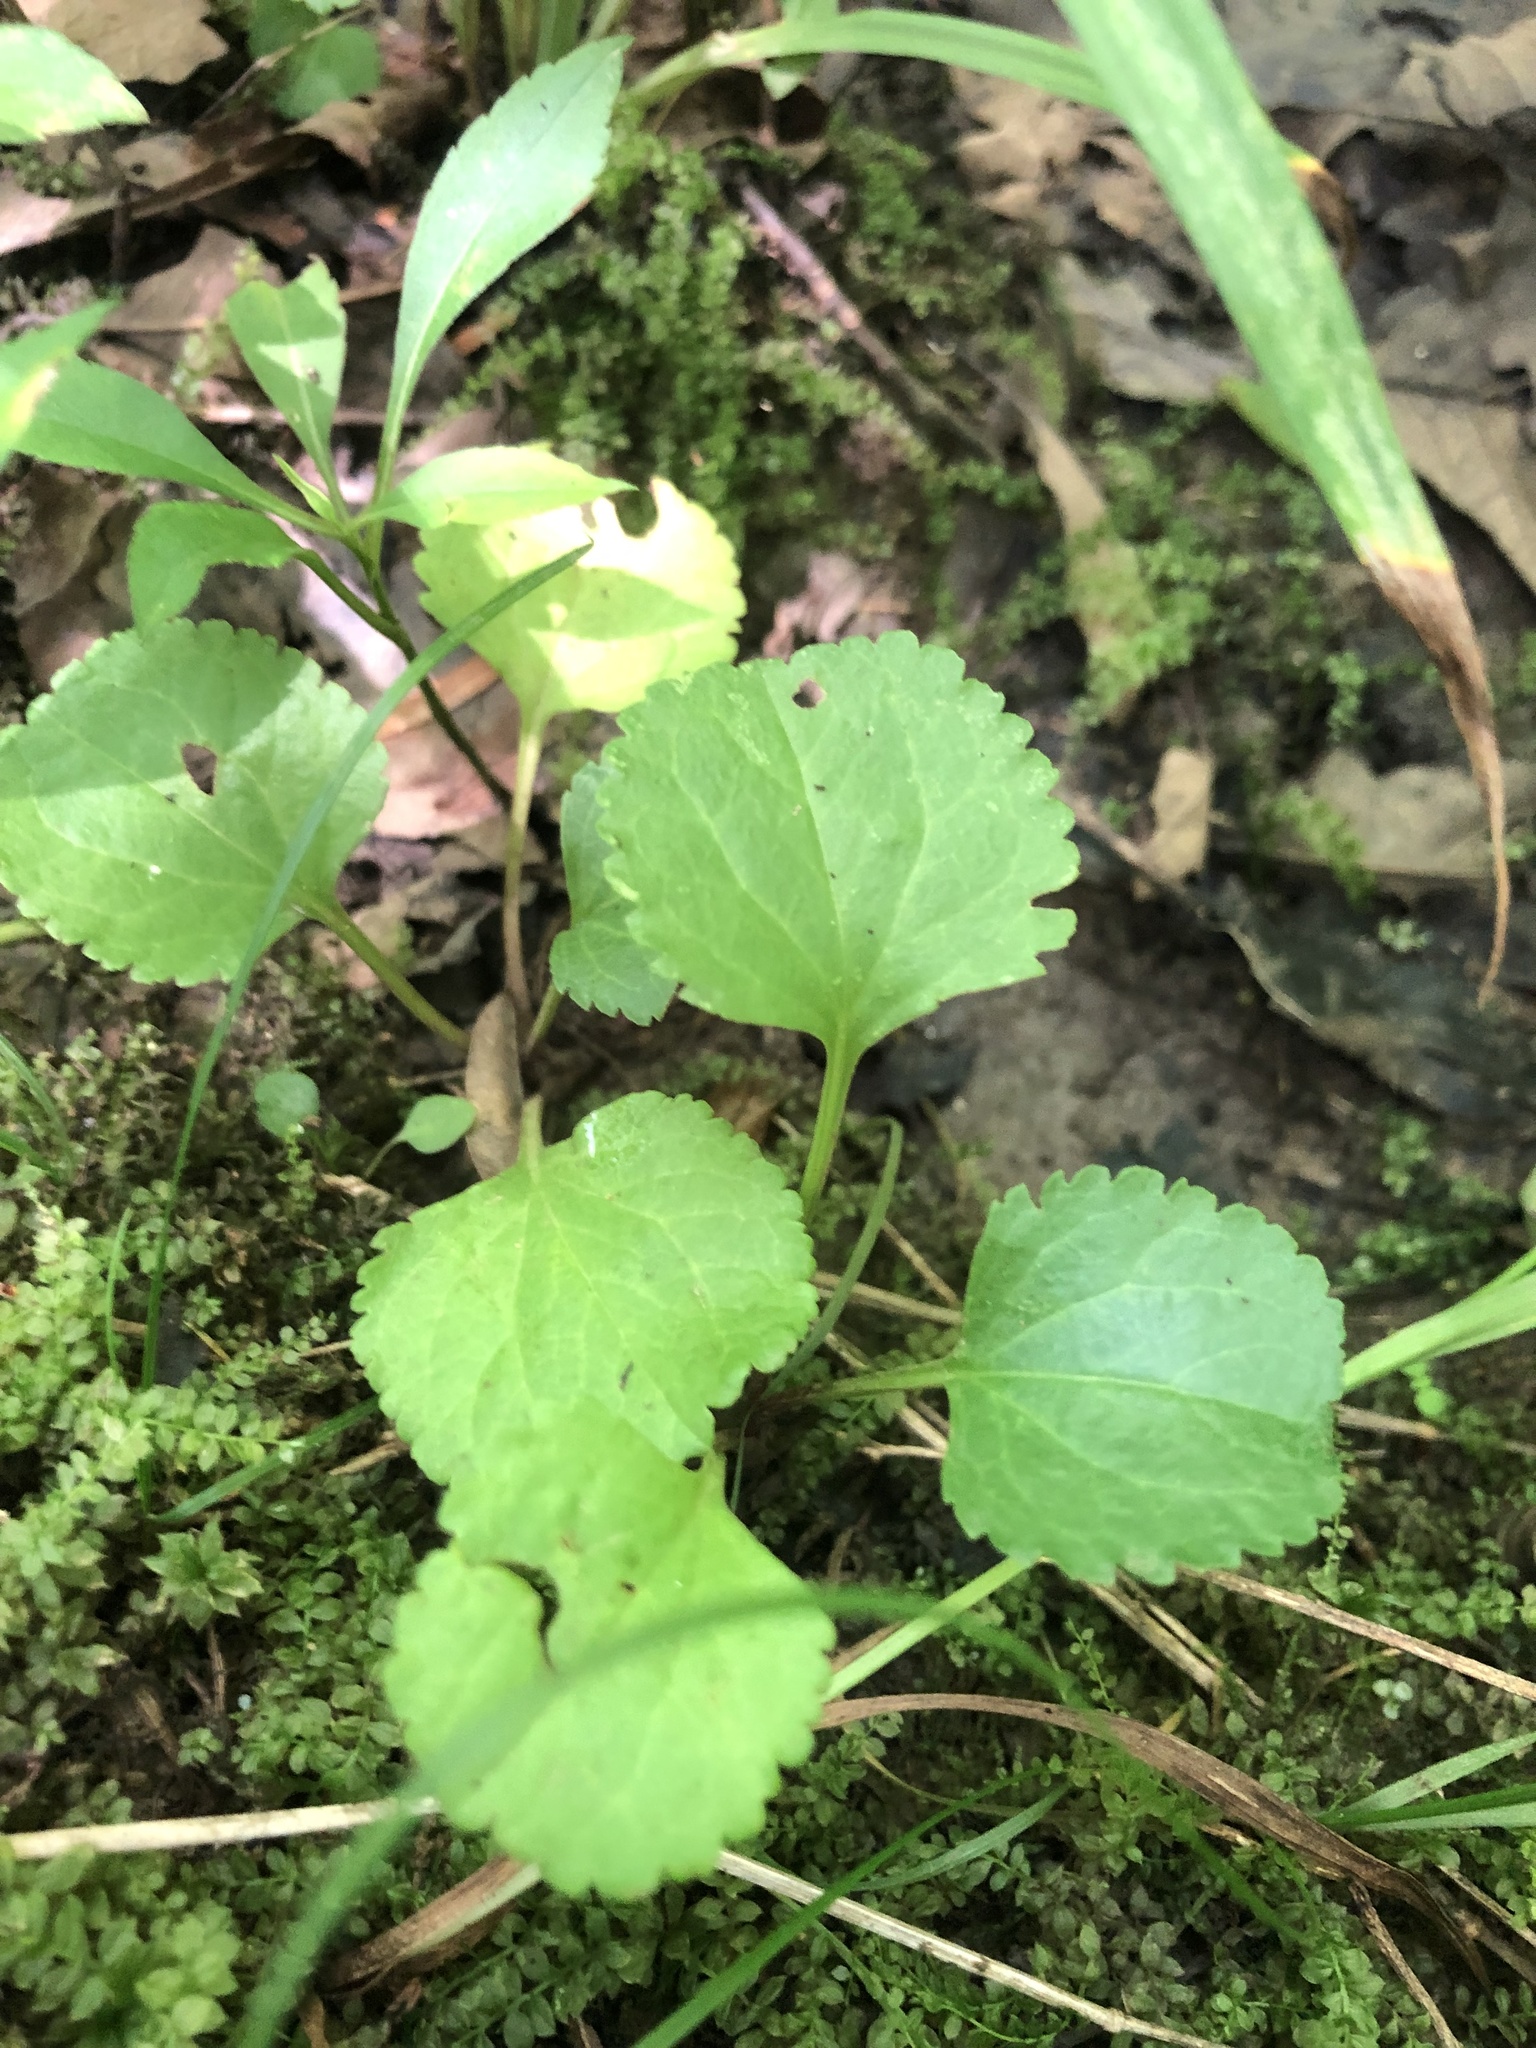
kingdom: Plantae
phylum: Tracheophyta
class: Magnoliopsida
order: Asterales
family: Asteraceae
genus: Packera
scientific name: Packera obovata
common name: Round-leaf ragwort
